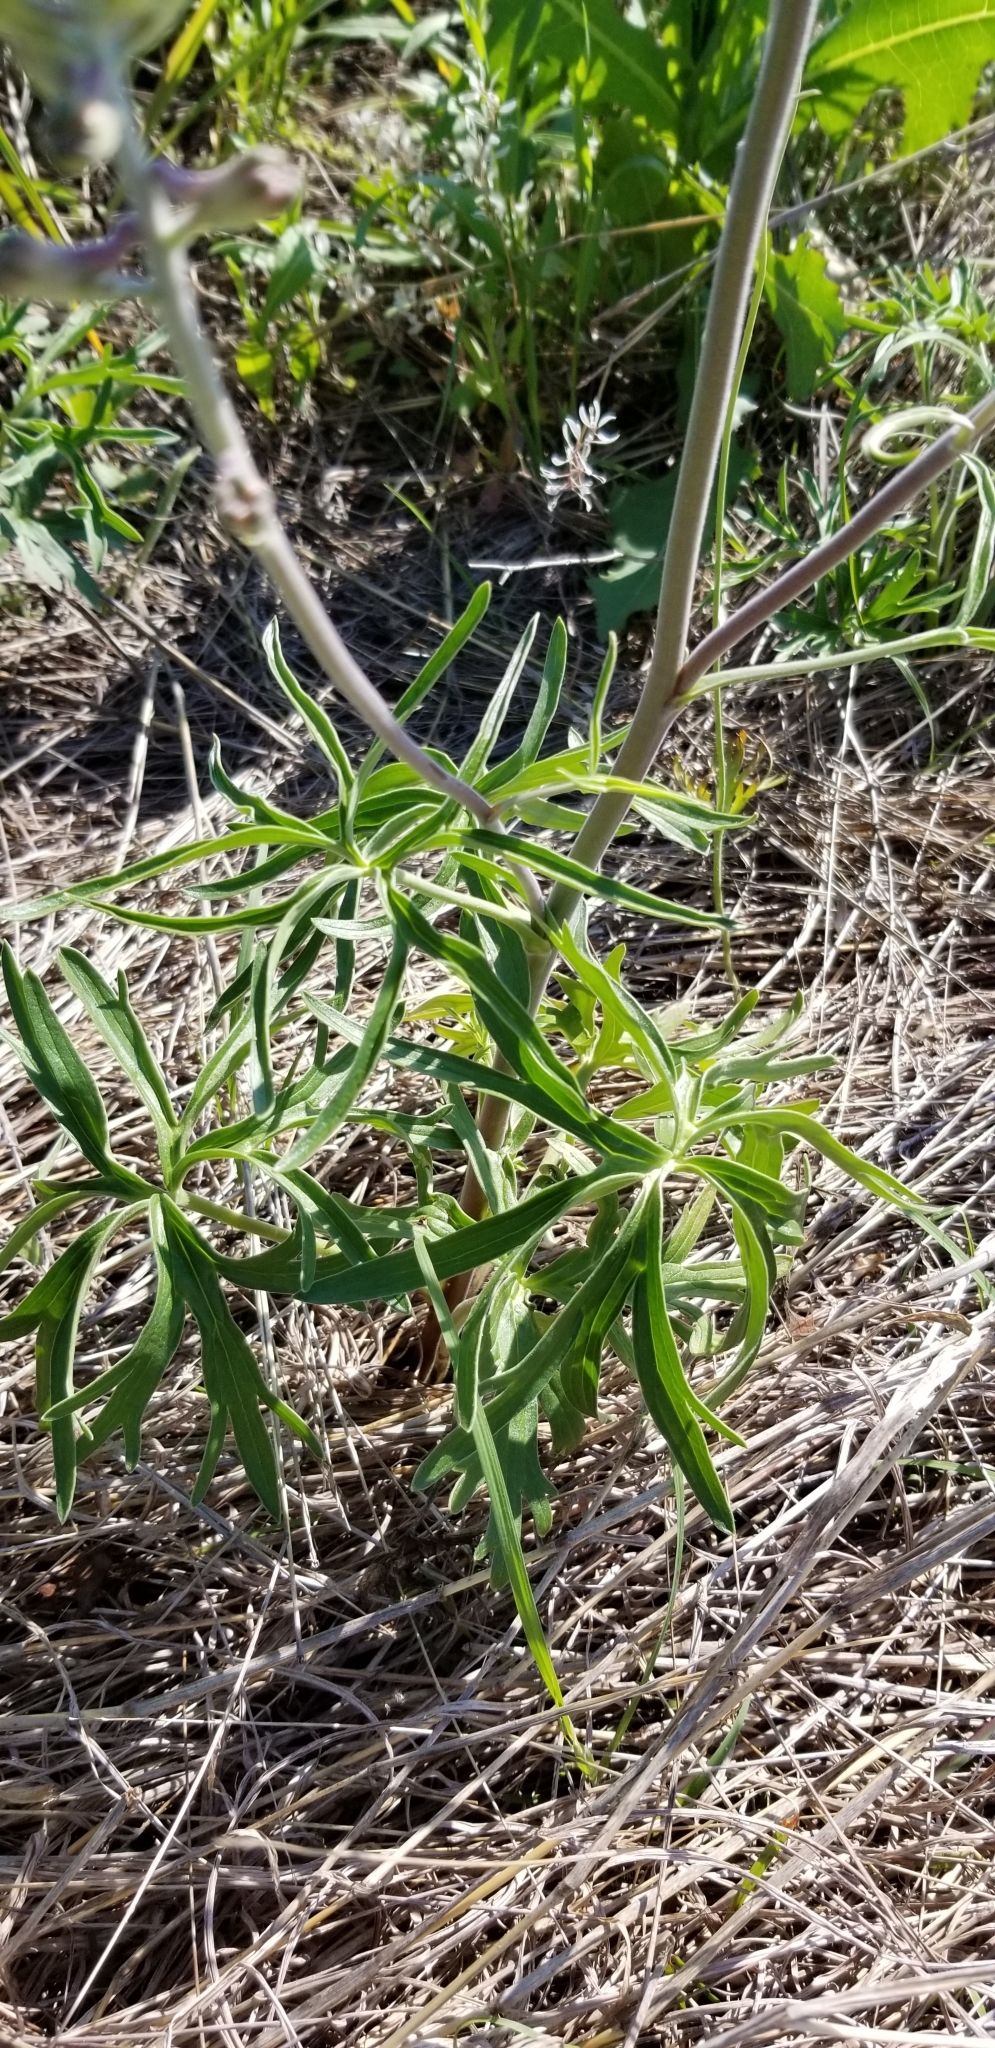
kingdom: Plantae
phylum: Tracheophyta
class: Magnoliopsida
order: Ranunculales
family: Ranunculaceae
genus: Delphinium
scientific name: Delphinium carolinianum
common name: Carolina larkspur
